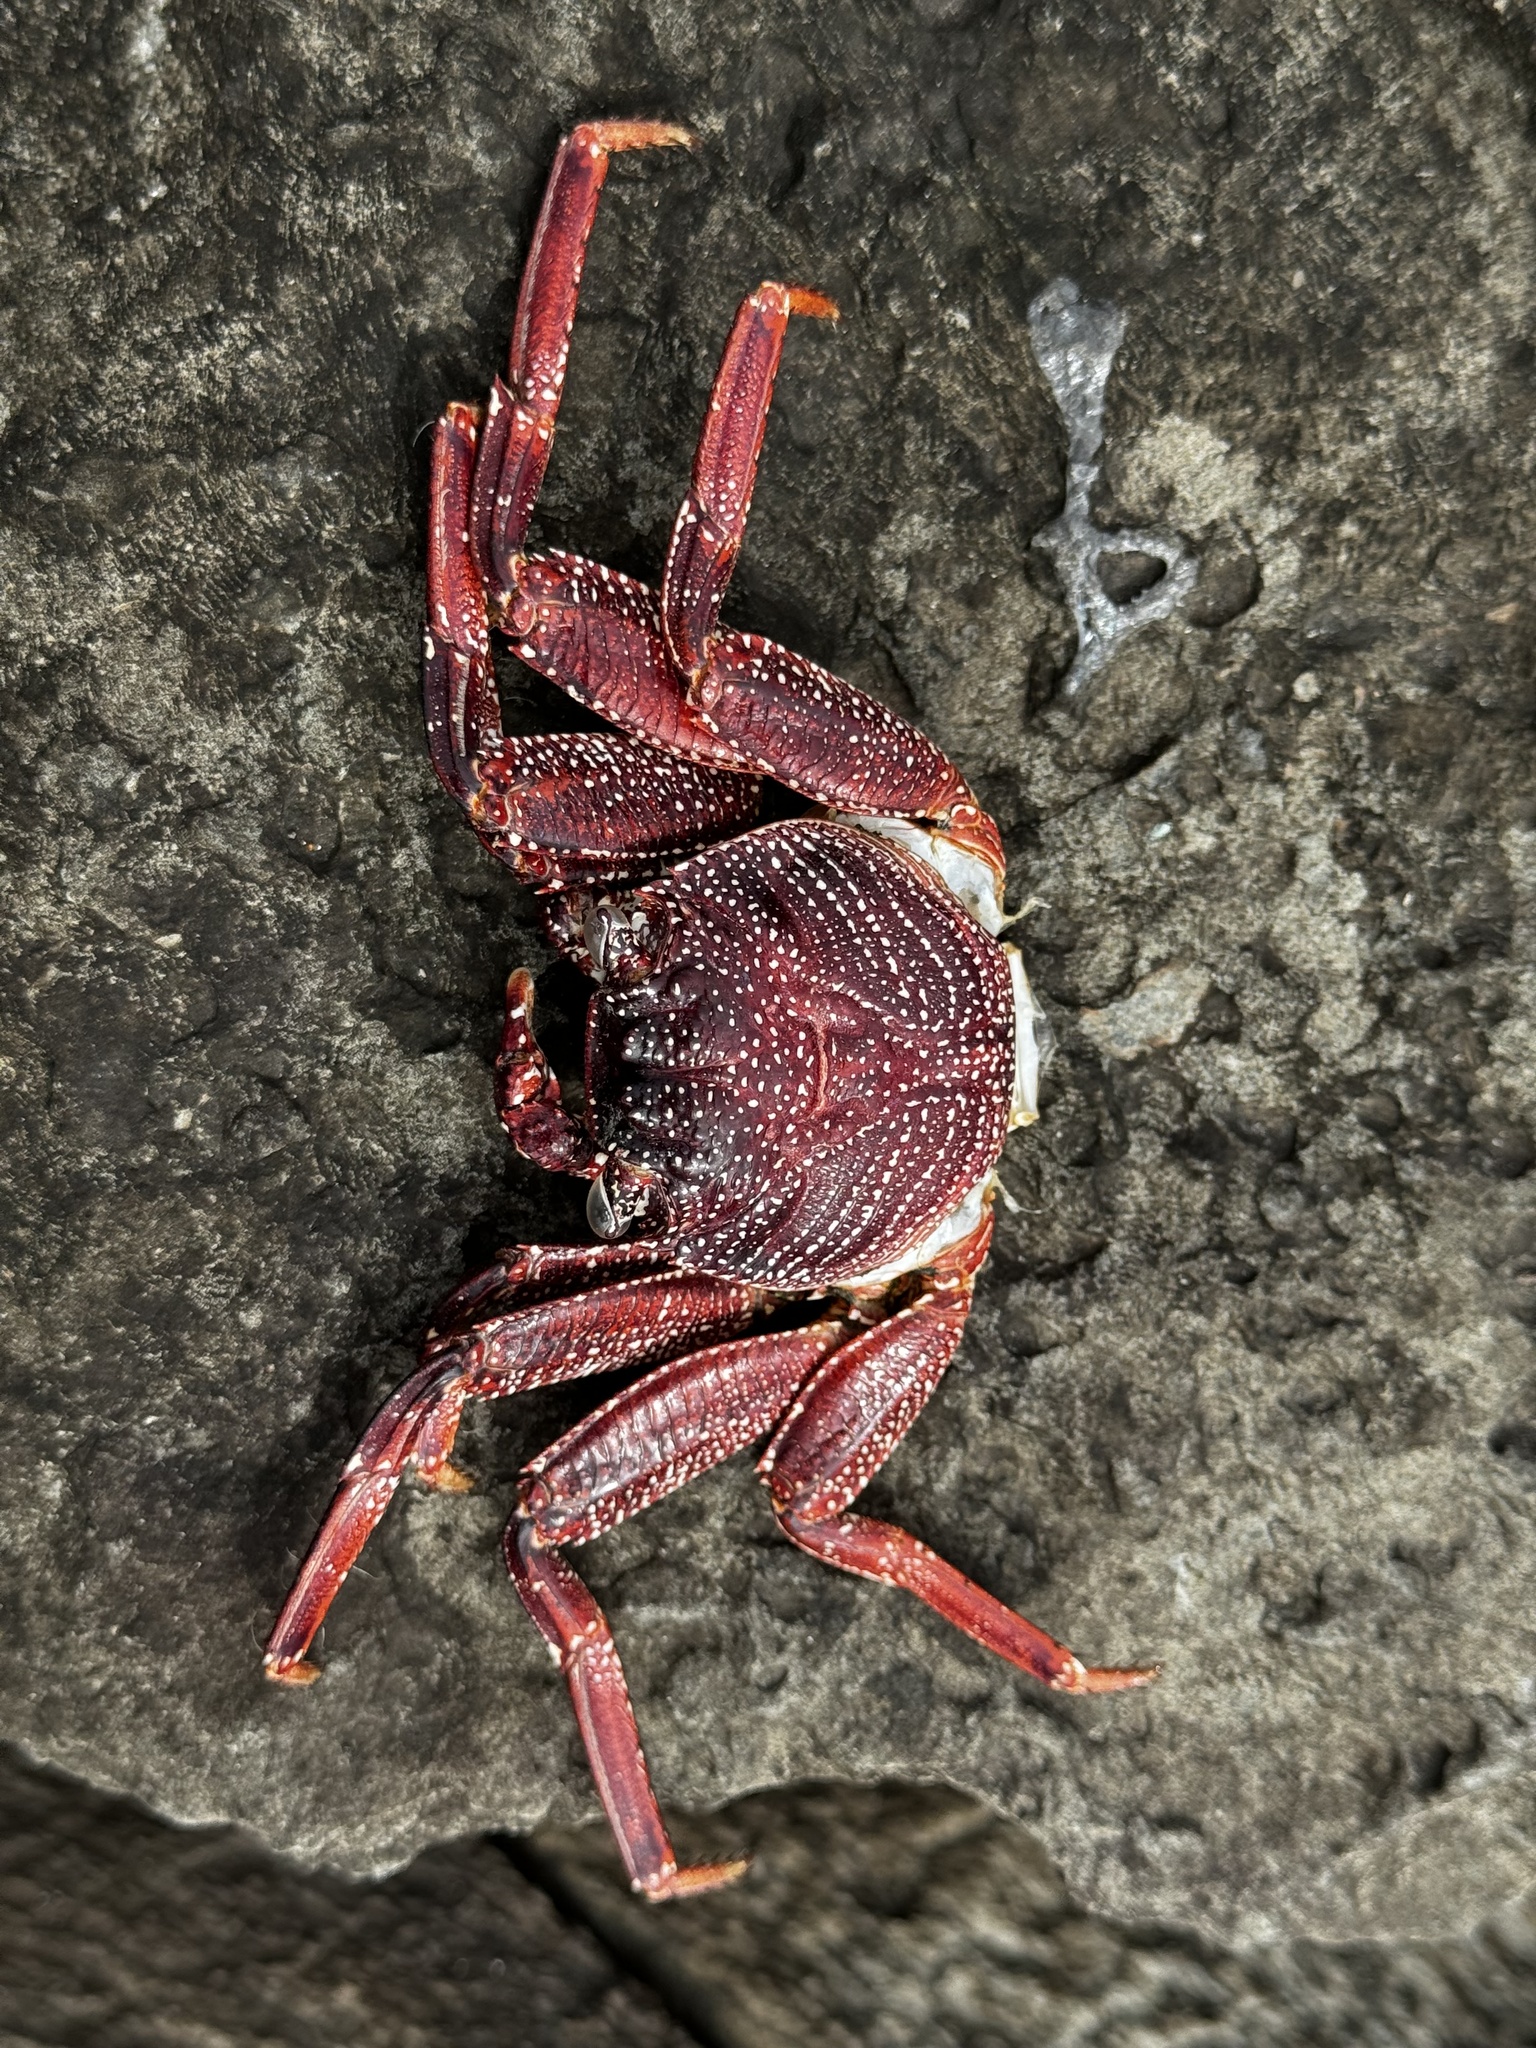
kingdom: Animalia
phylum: Arthropoda
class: Malacostraca
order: Decapoda
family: Grapsidae
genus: Grapsus
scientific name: Grapsus tenuicrustatus
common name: Natal lightfoot crab
